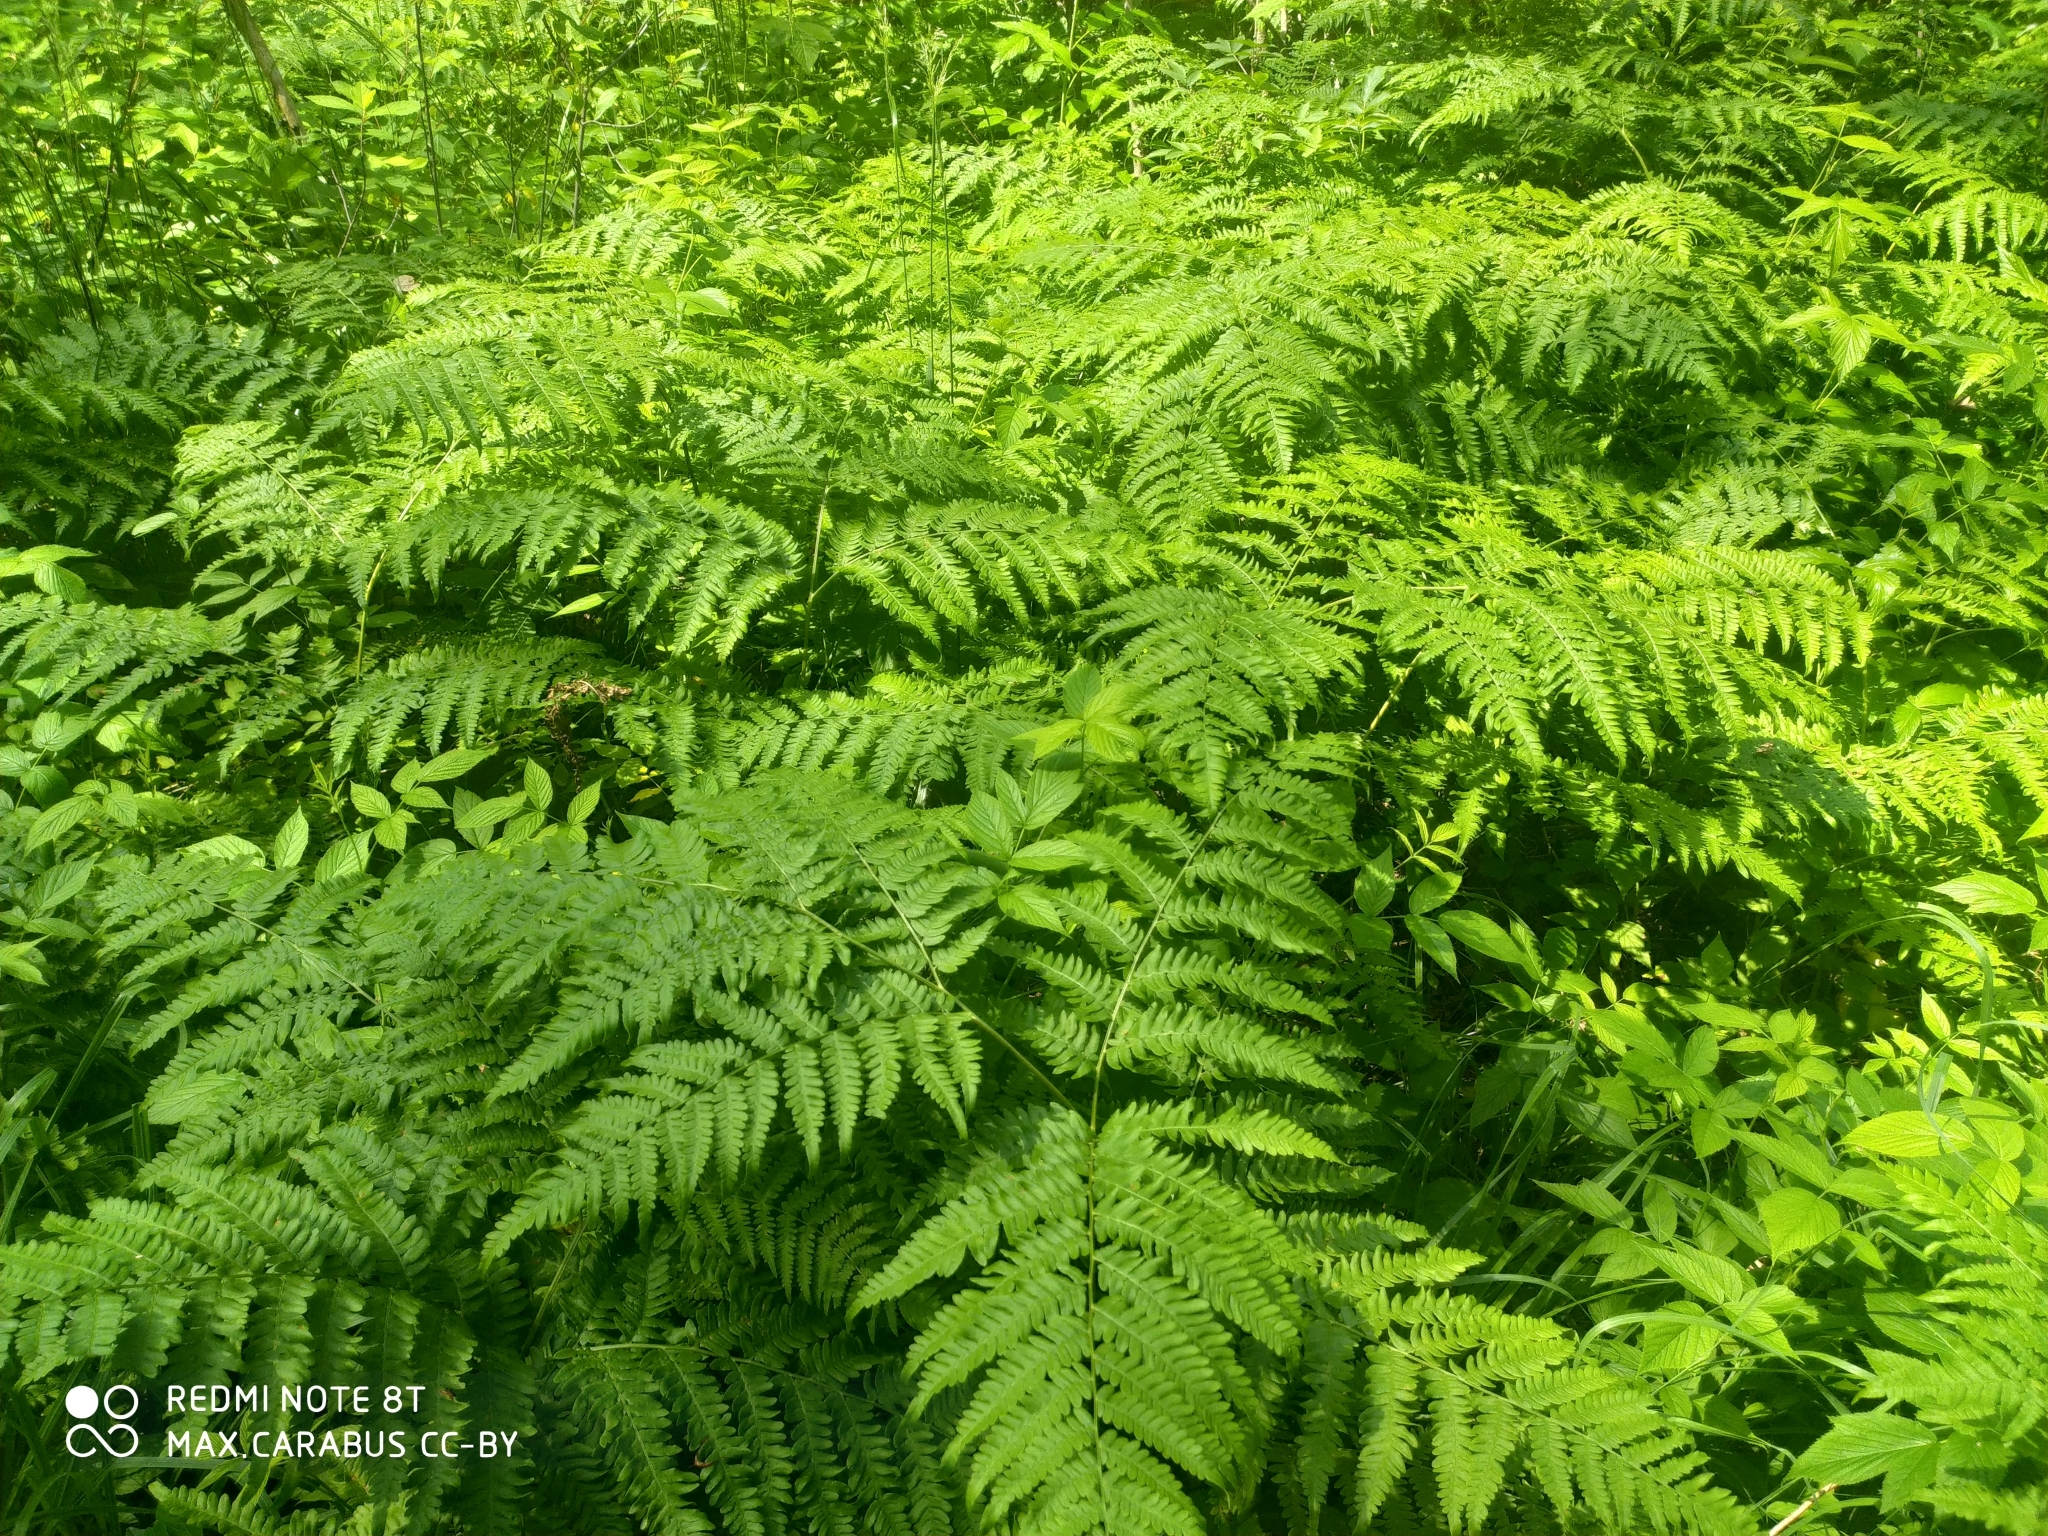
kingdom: Plantae
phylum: Tracheophyta
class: Polypodiopsida
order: Polypodiales
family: Dennstaedtiaceae
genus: Pteridium
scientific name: Pteridium aquilinum
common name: Bracken
